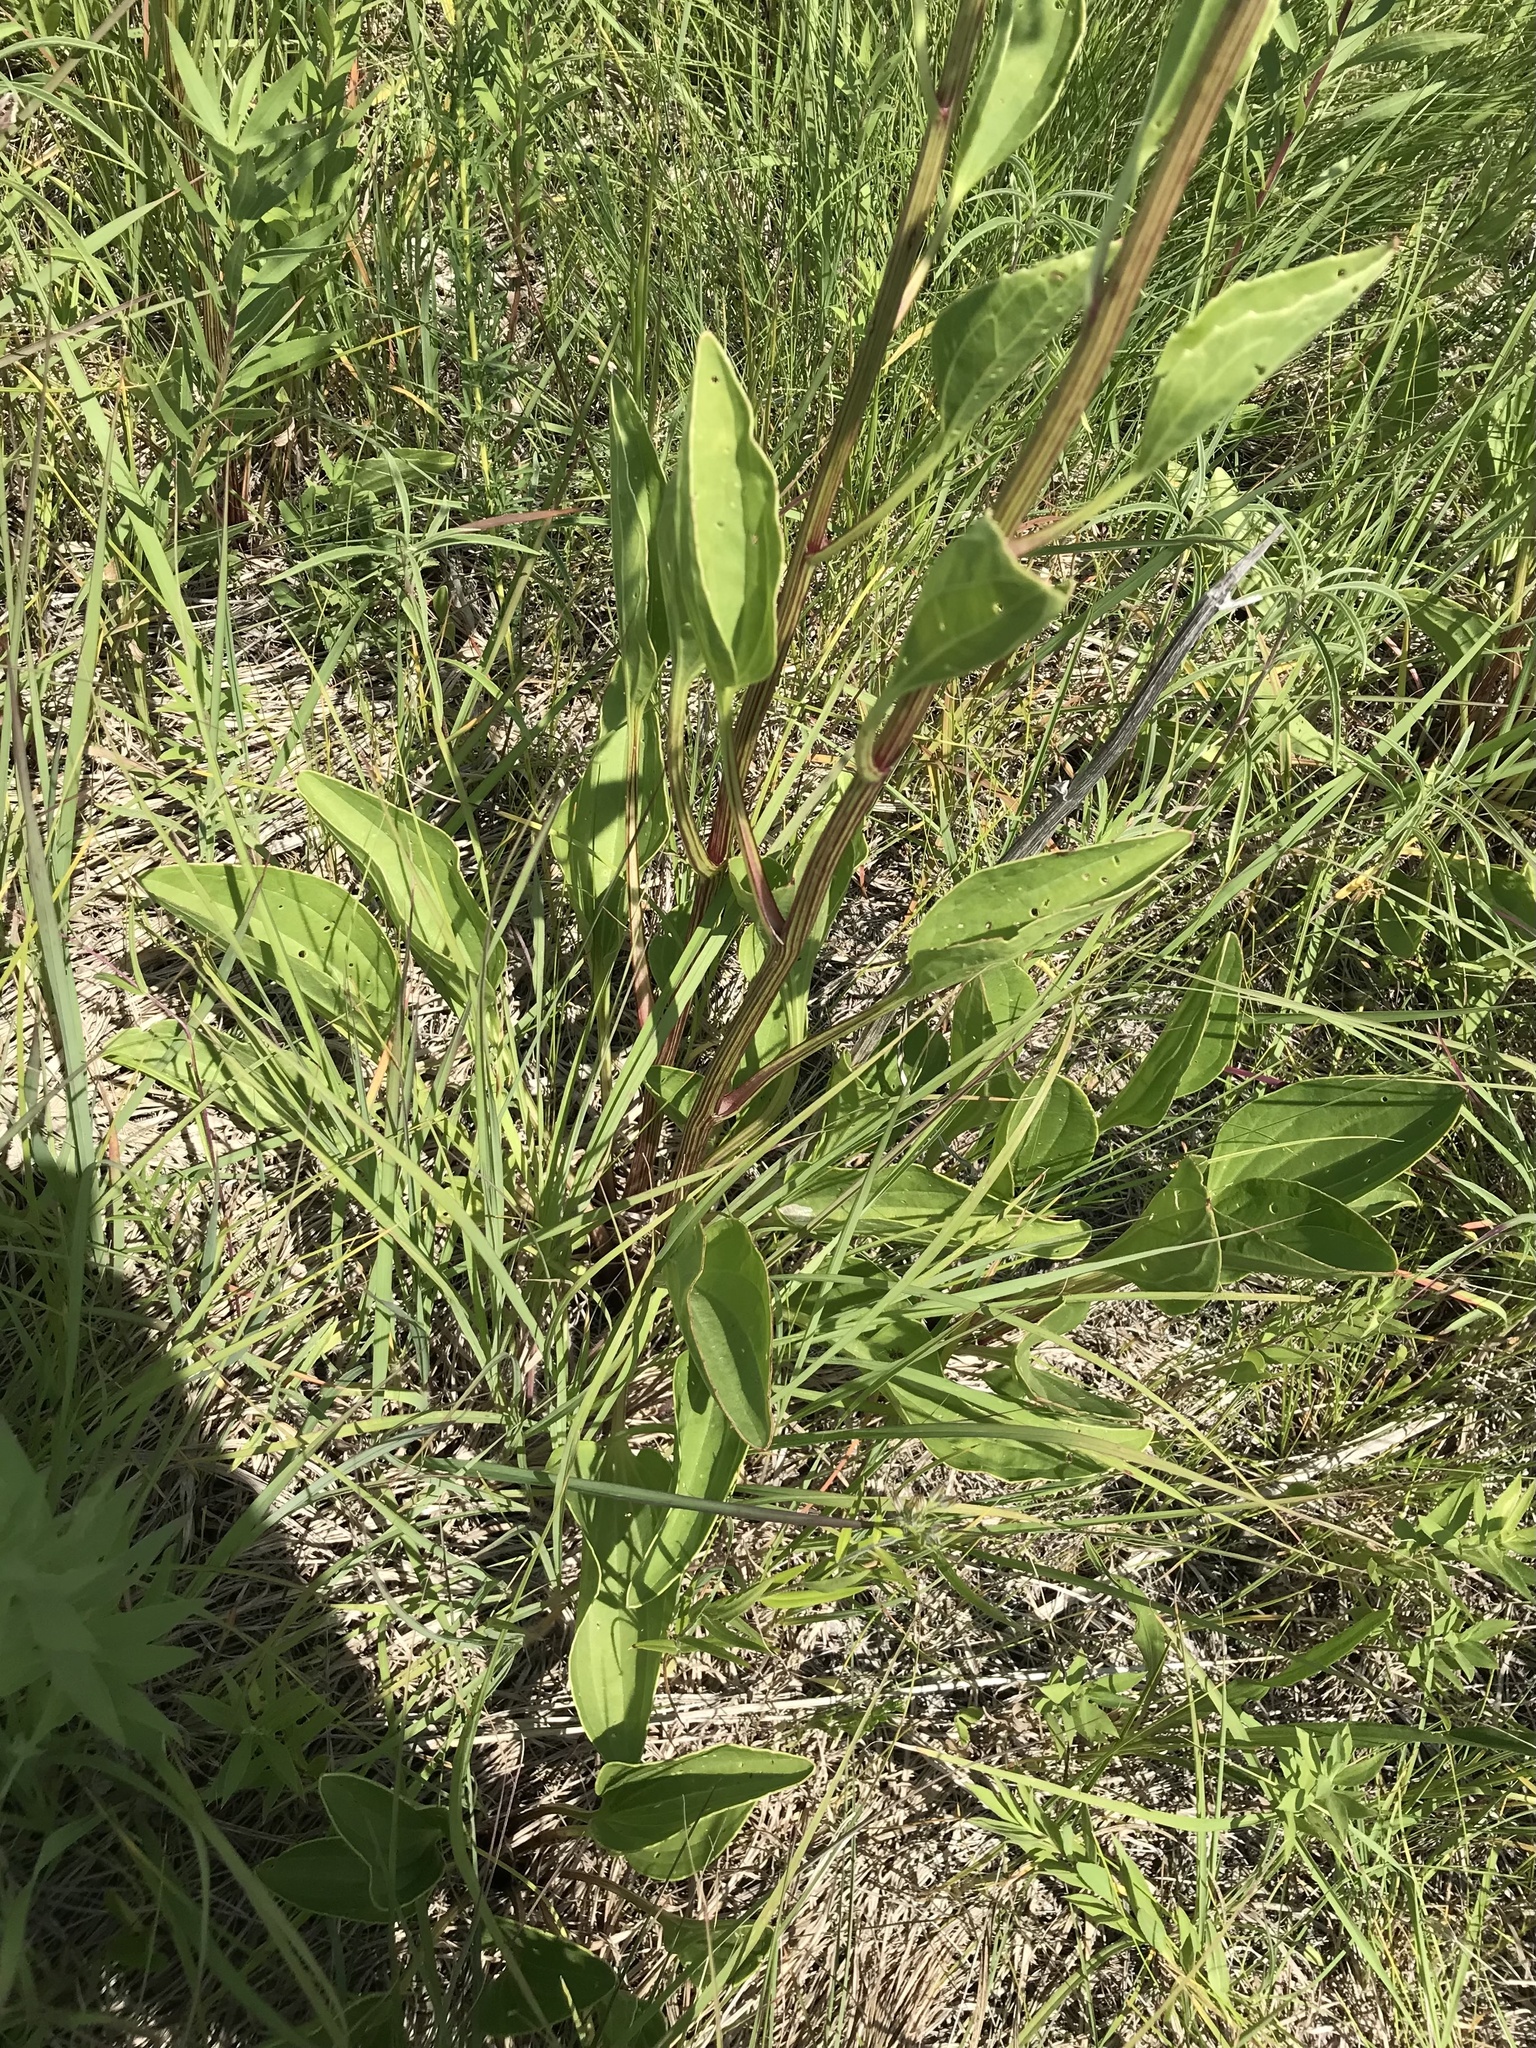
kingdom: Plantae
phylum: Tracheophyta
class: Magnoliopsida
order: Asterales
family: Asteraceae
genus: Arnoglossum
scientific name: Arnoglossum plantagineum
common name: Groove-stemmed indian-plantain
